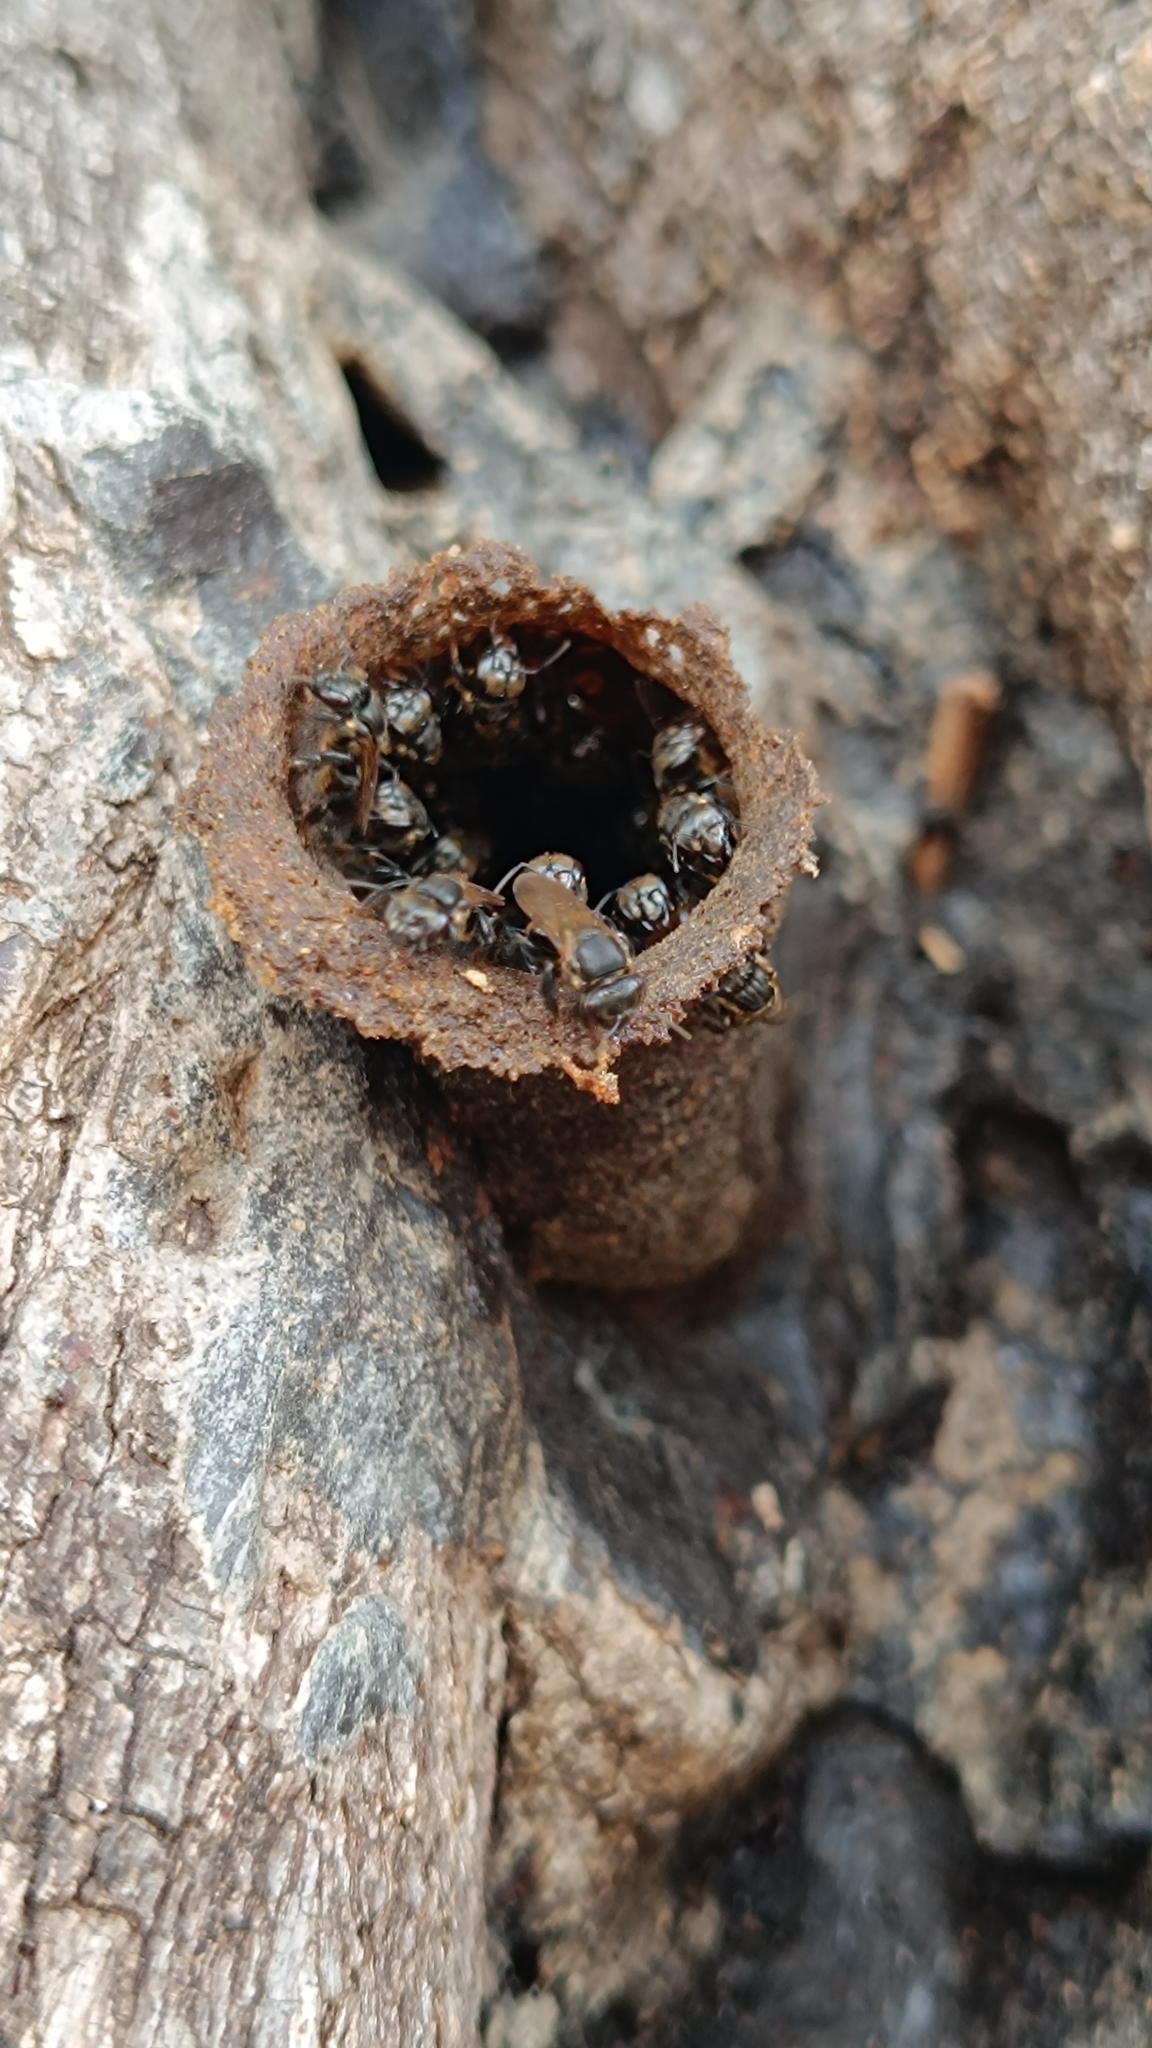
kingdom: Animalia
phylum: Arthropoda
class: Insecta
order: Hymenoptera
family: Apidae
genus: Scaptotrigona
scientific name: Scaptotrigona postica
